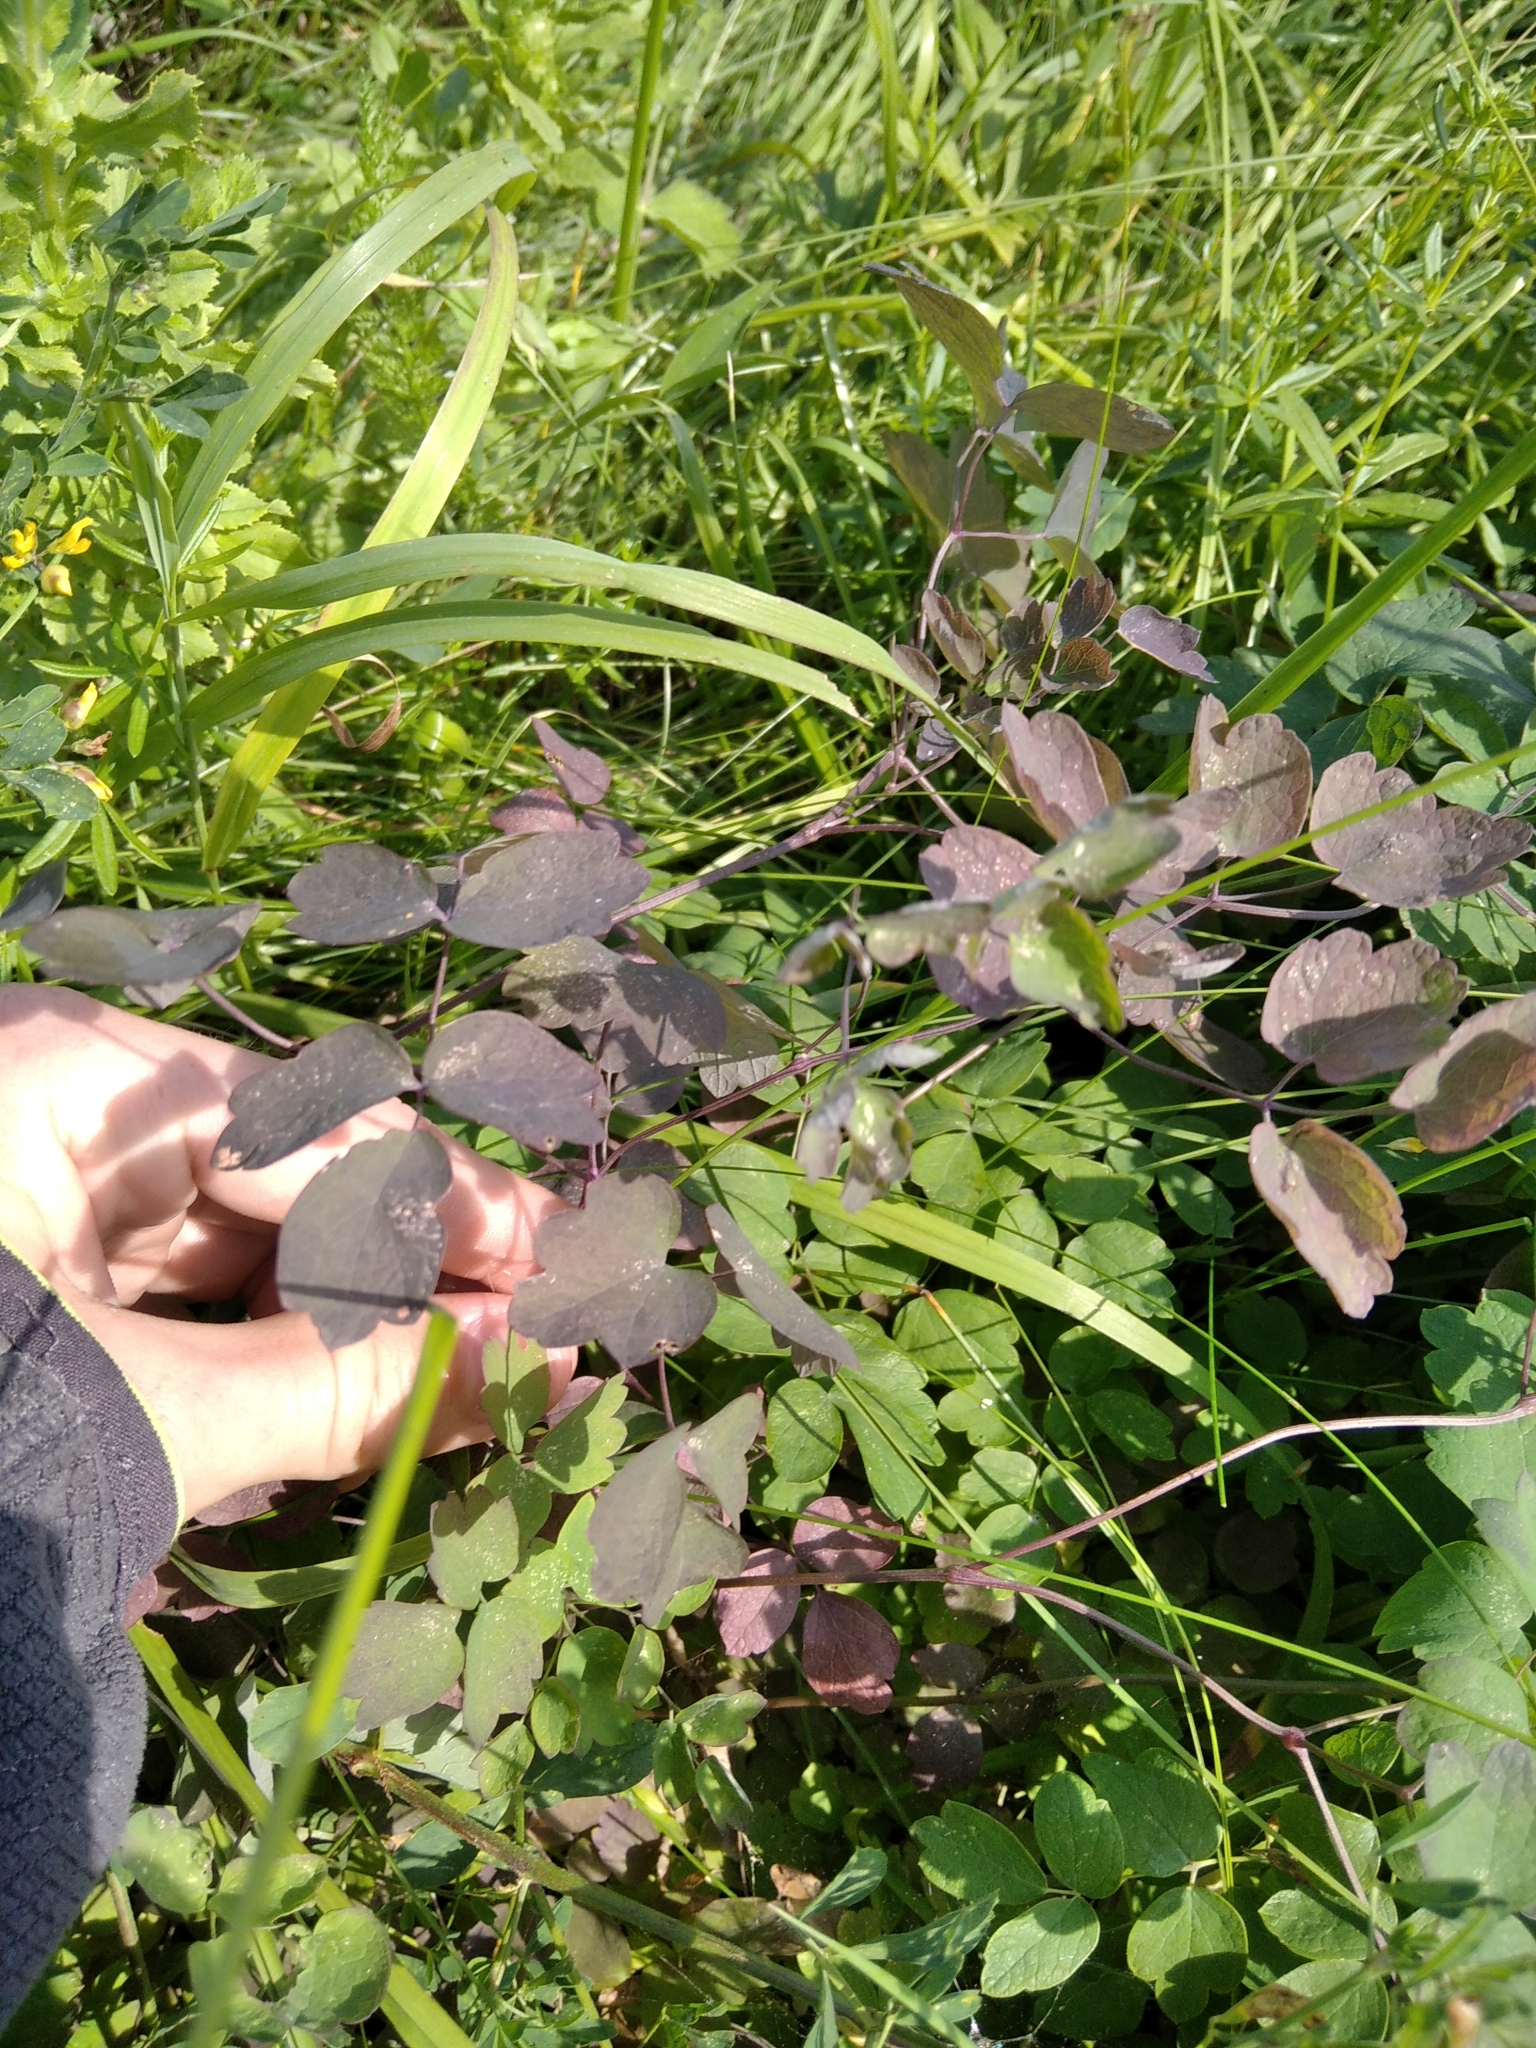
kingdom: Plantae
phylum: Tracheophyta
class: Magnoliopsida
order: Ranunculales
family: Ranunculaceae
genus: Thalictrum
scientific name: Thalictrum minus
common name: Lesser meadow-rue
